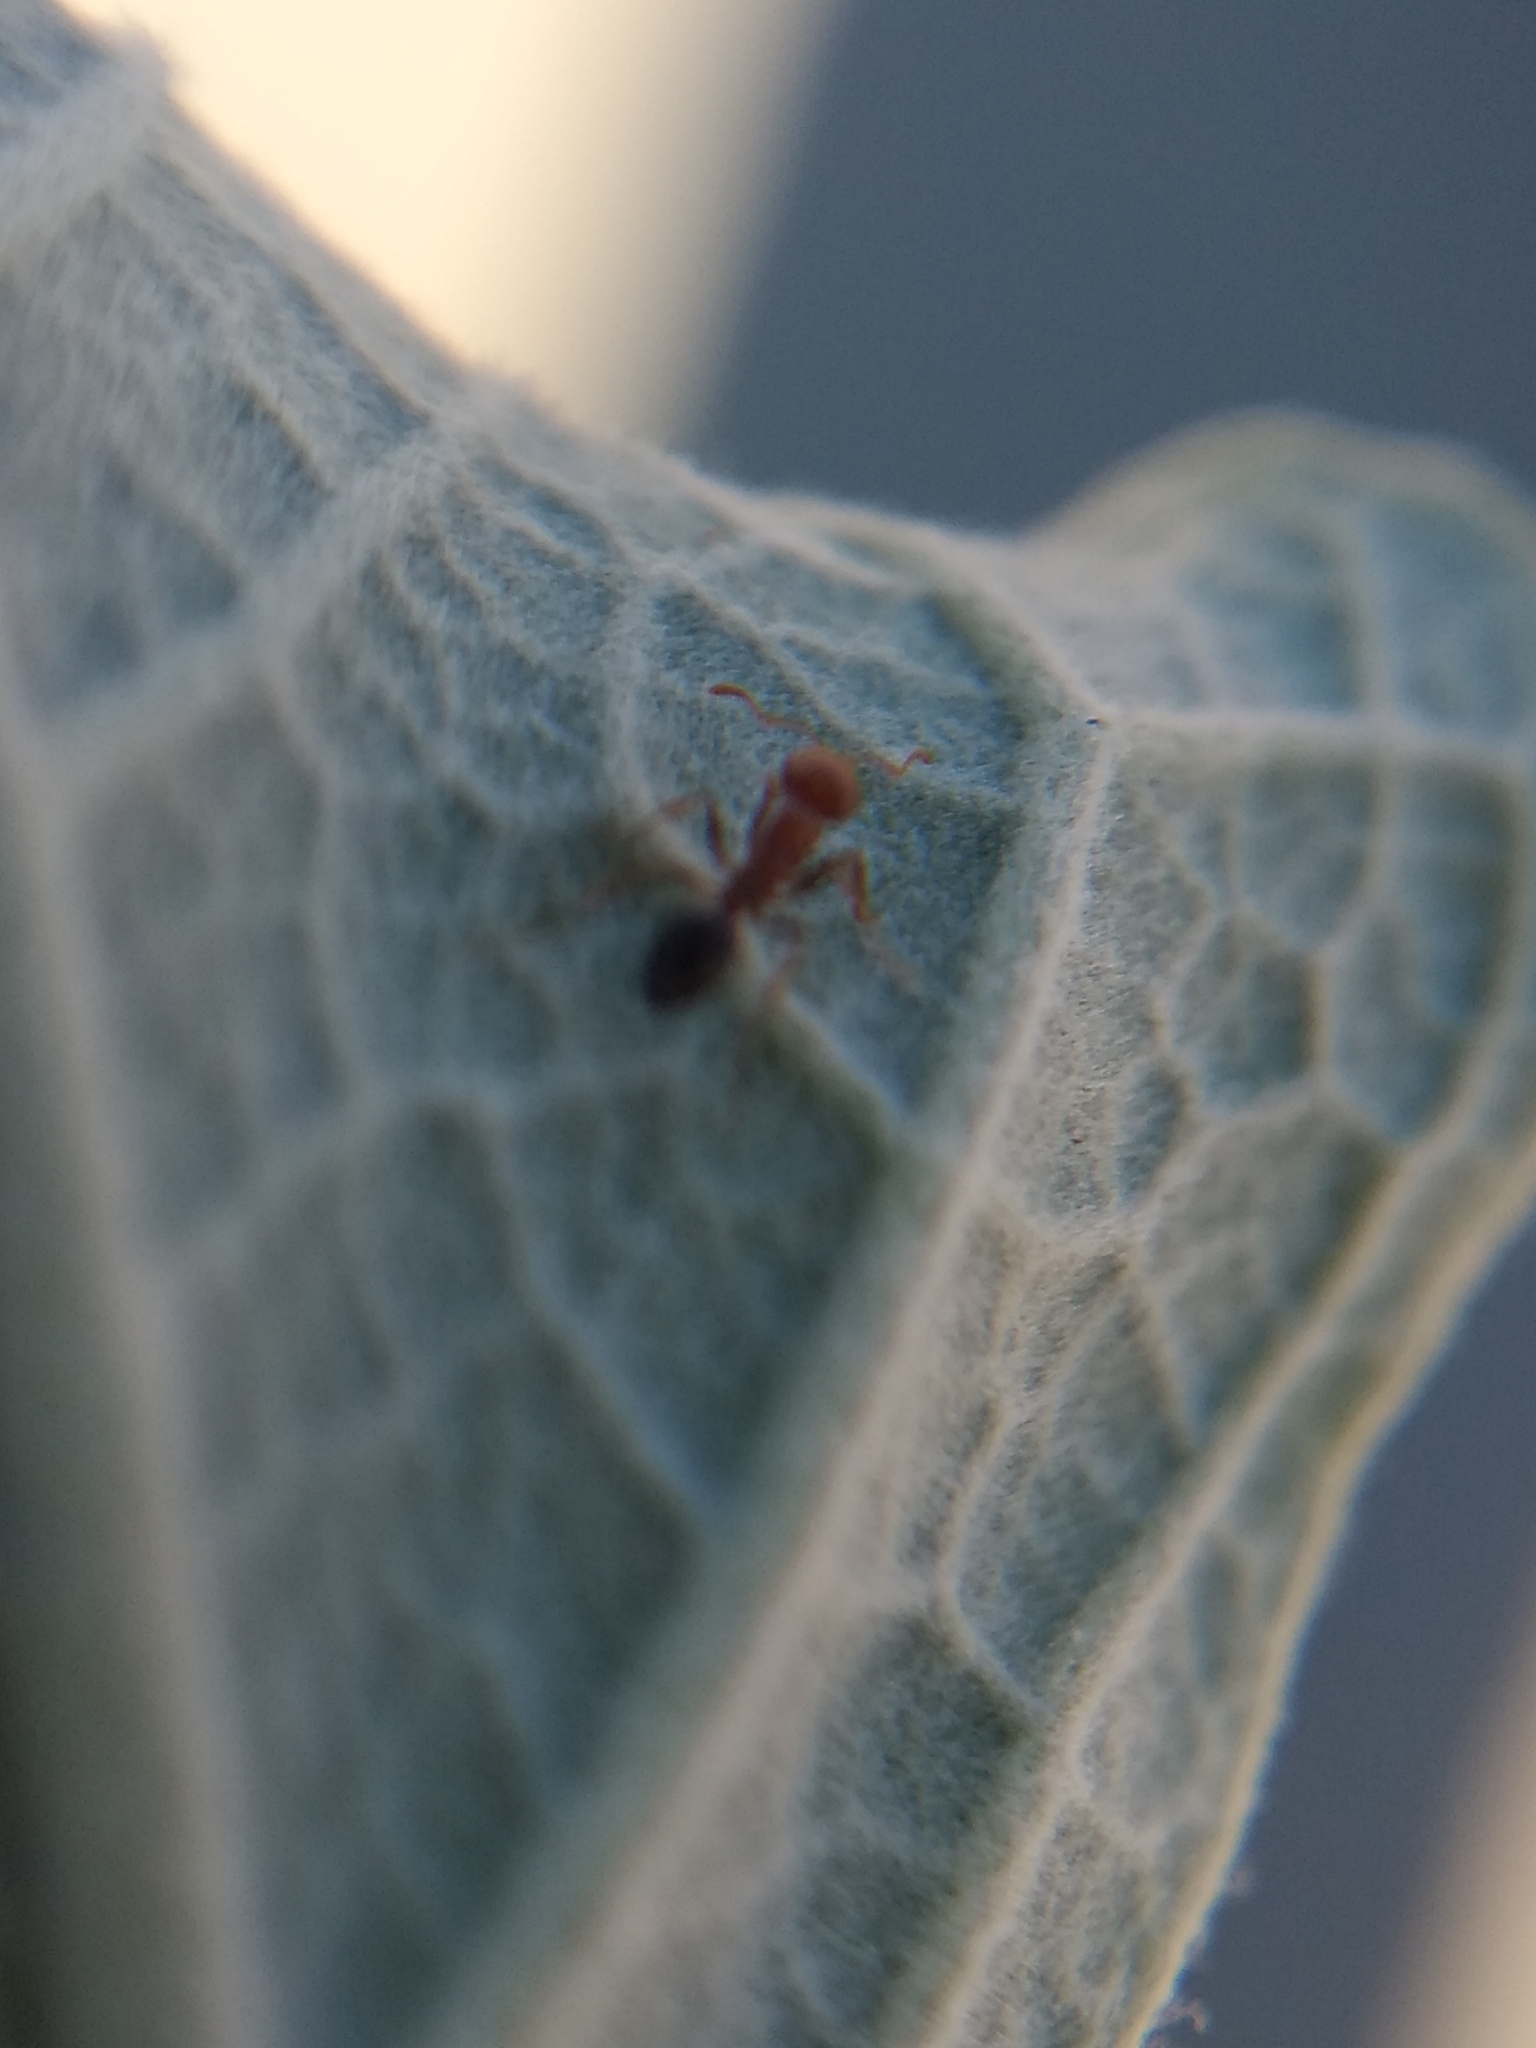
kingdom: Animalia
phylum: Arthropoda
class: Insecta
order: Hymenoptera
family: Formicidae
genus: Solenopsis
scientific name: Solenopsis xyloni
